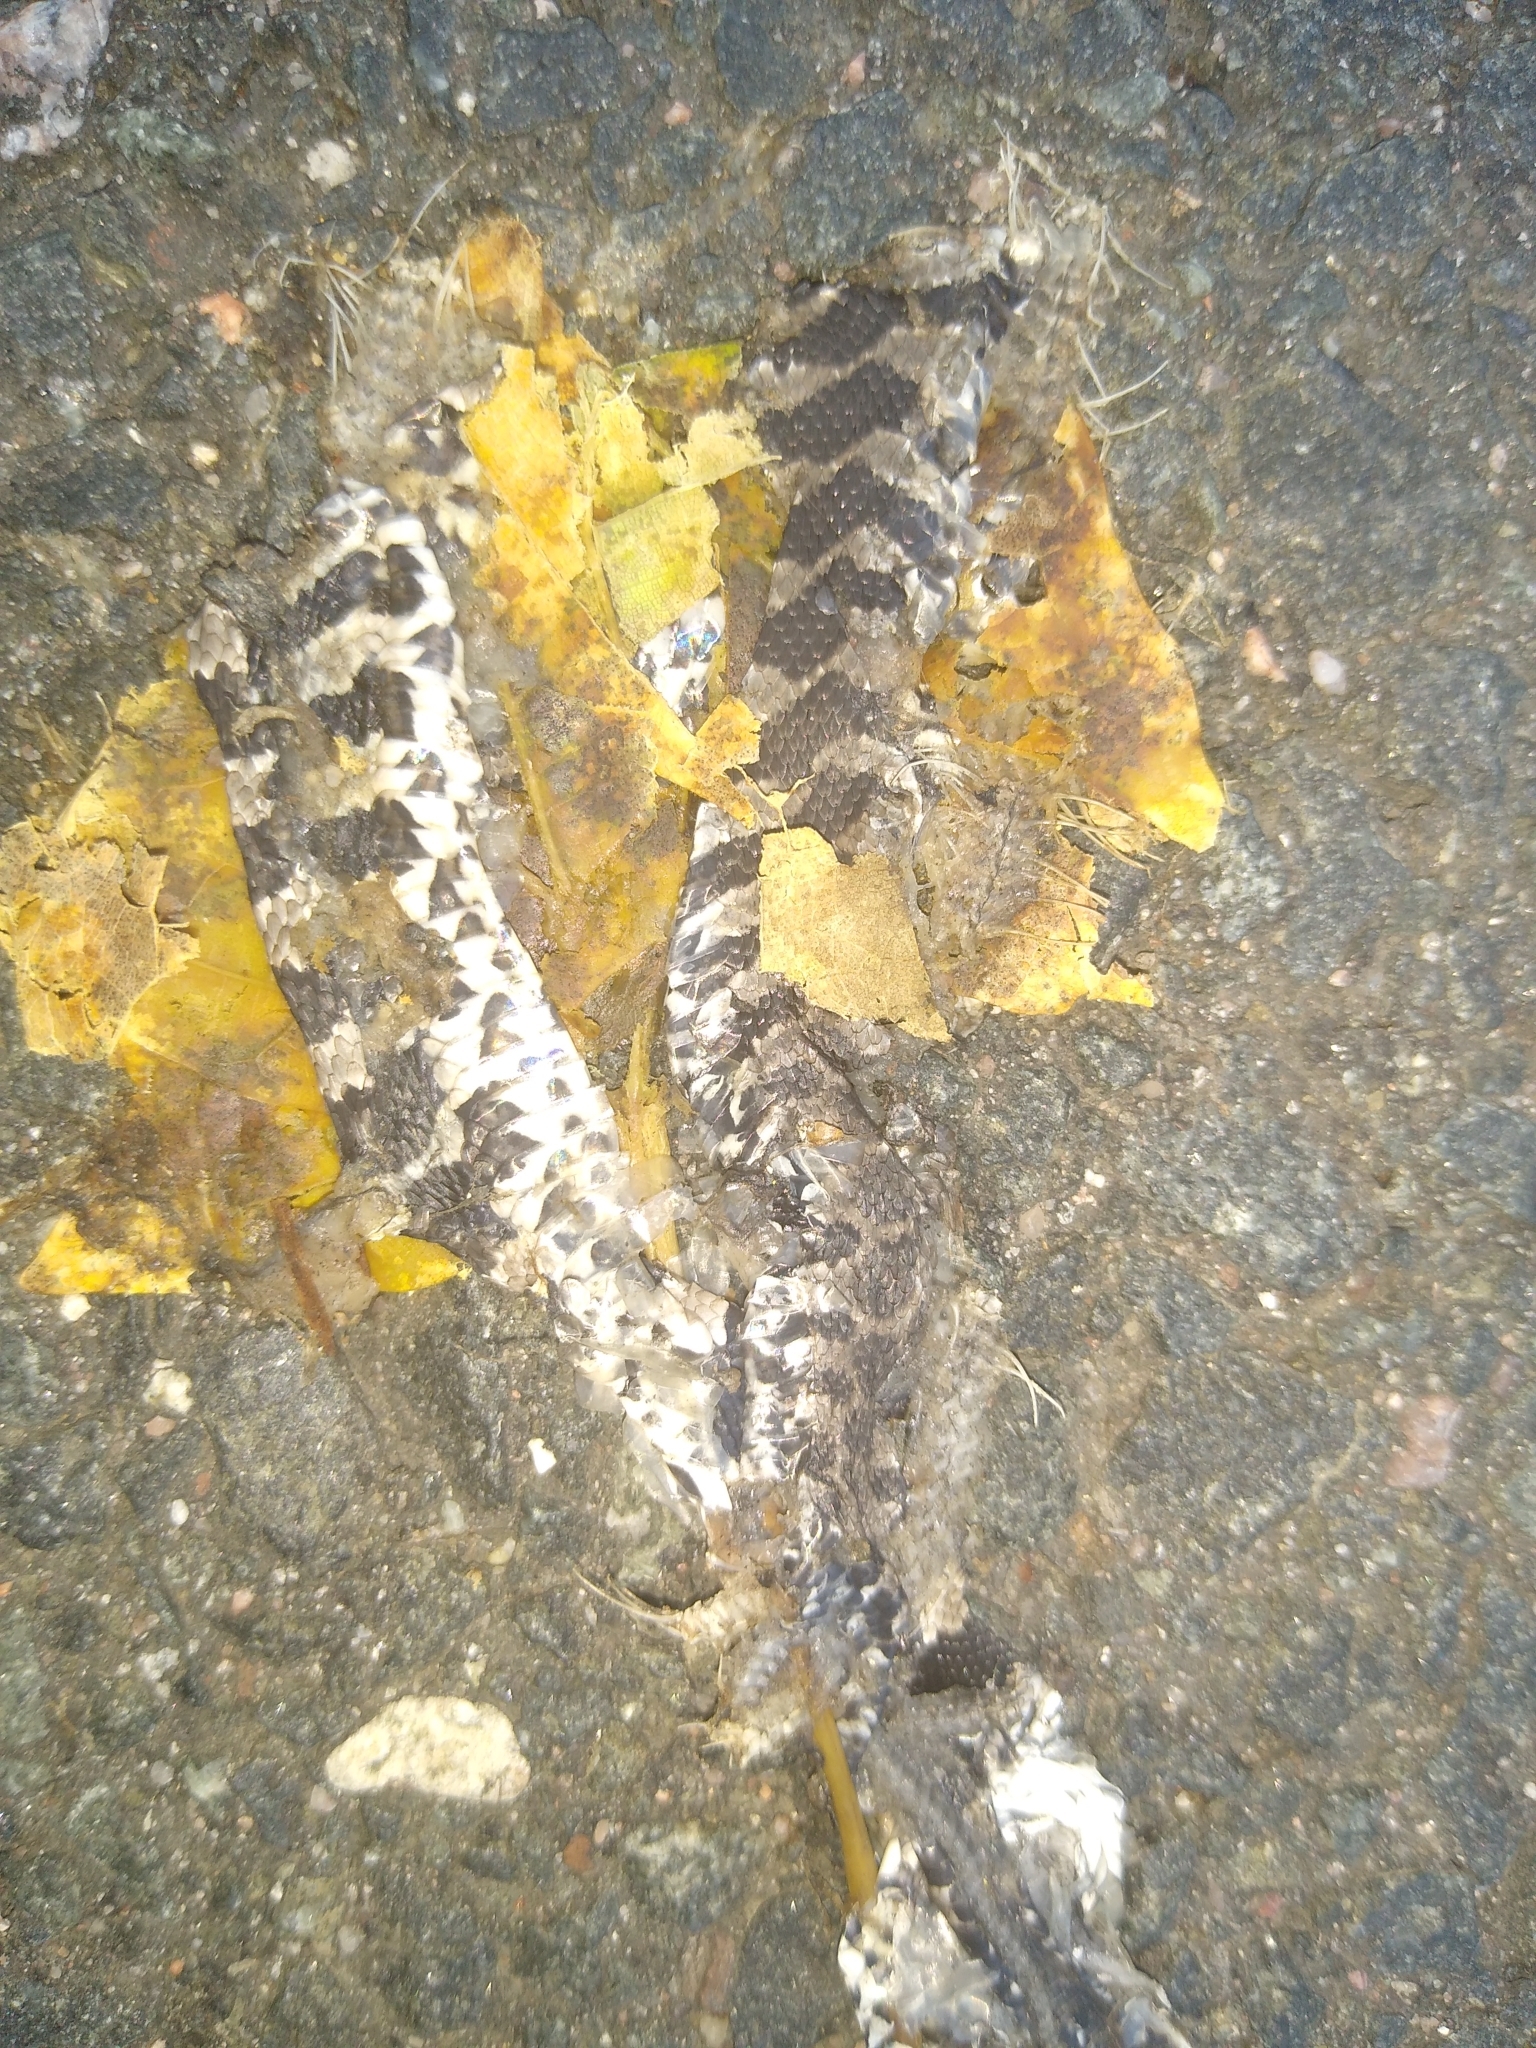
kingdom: Animalia
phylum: Chordata
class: Squamata
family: Colubridae
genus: Nerodia
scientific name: Nerodia sipedon
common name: Northern water snake
